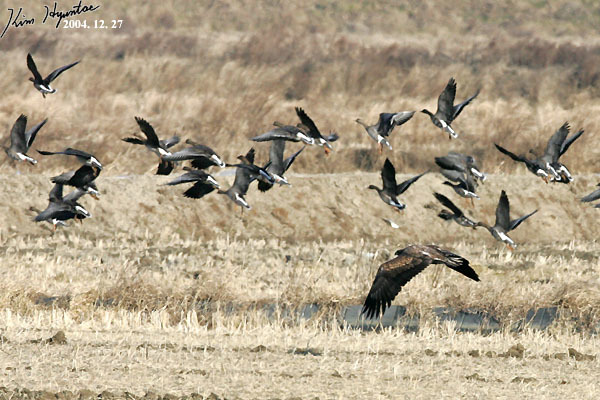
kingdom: Animalia
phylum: Chordata
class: Aves
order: Accipitriformes
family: Accipitridae
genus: Haliaeetus
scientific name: Haliaeetus albicilla
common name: White-tailed eagle
